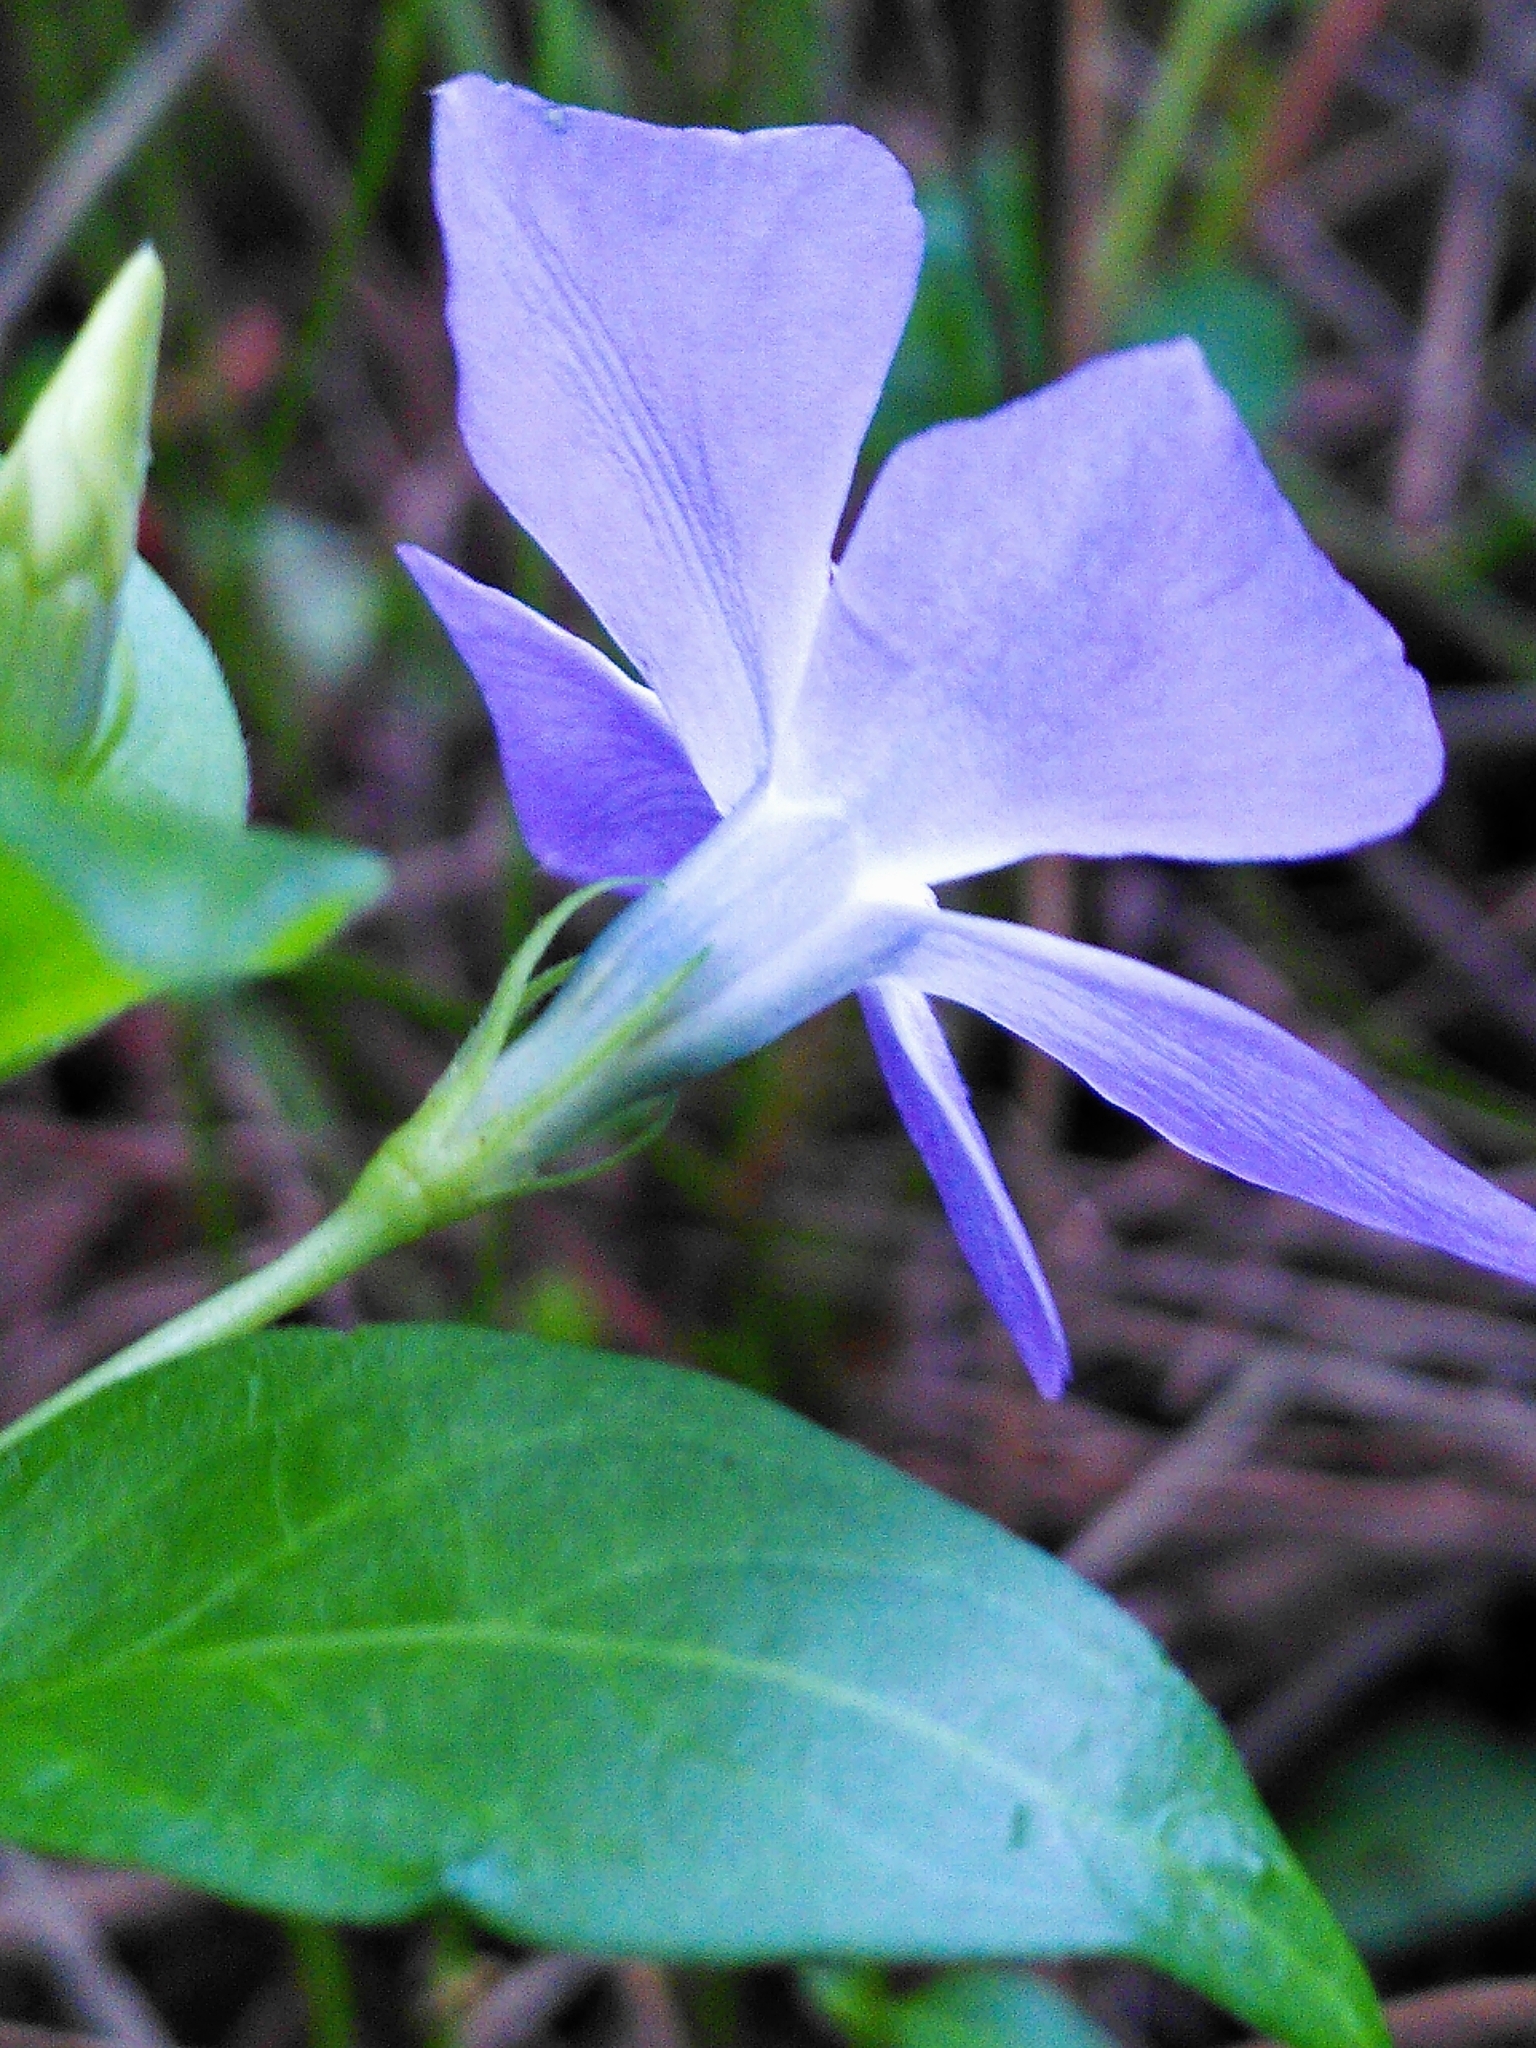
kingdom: Plantae
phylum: Tracheophyta
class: Magnoliopsida
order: Gentianales
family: Apocynaceae
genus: Vinca
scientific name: Vinca major
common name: Greater periwinkle
